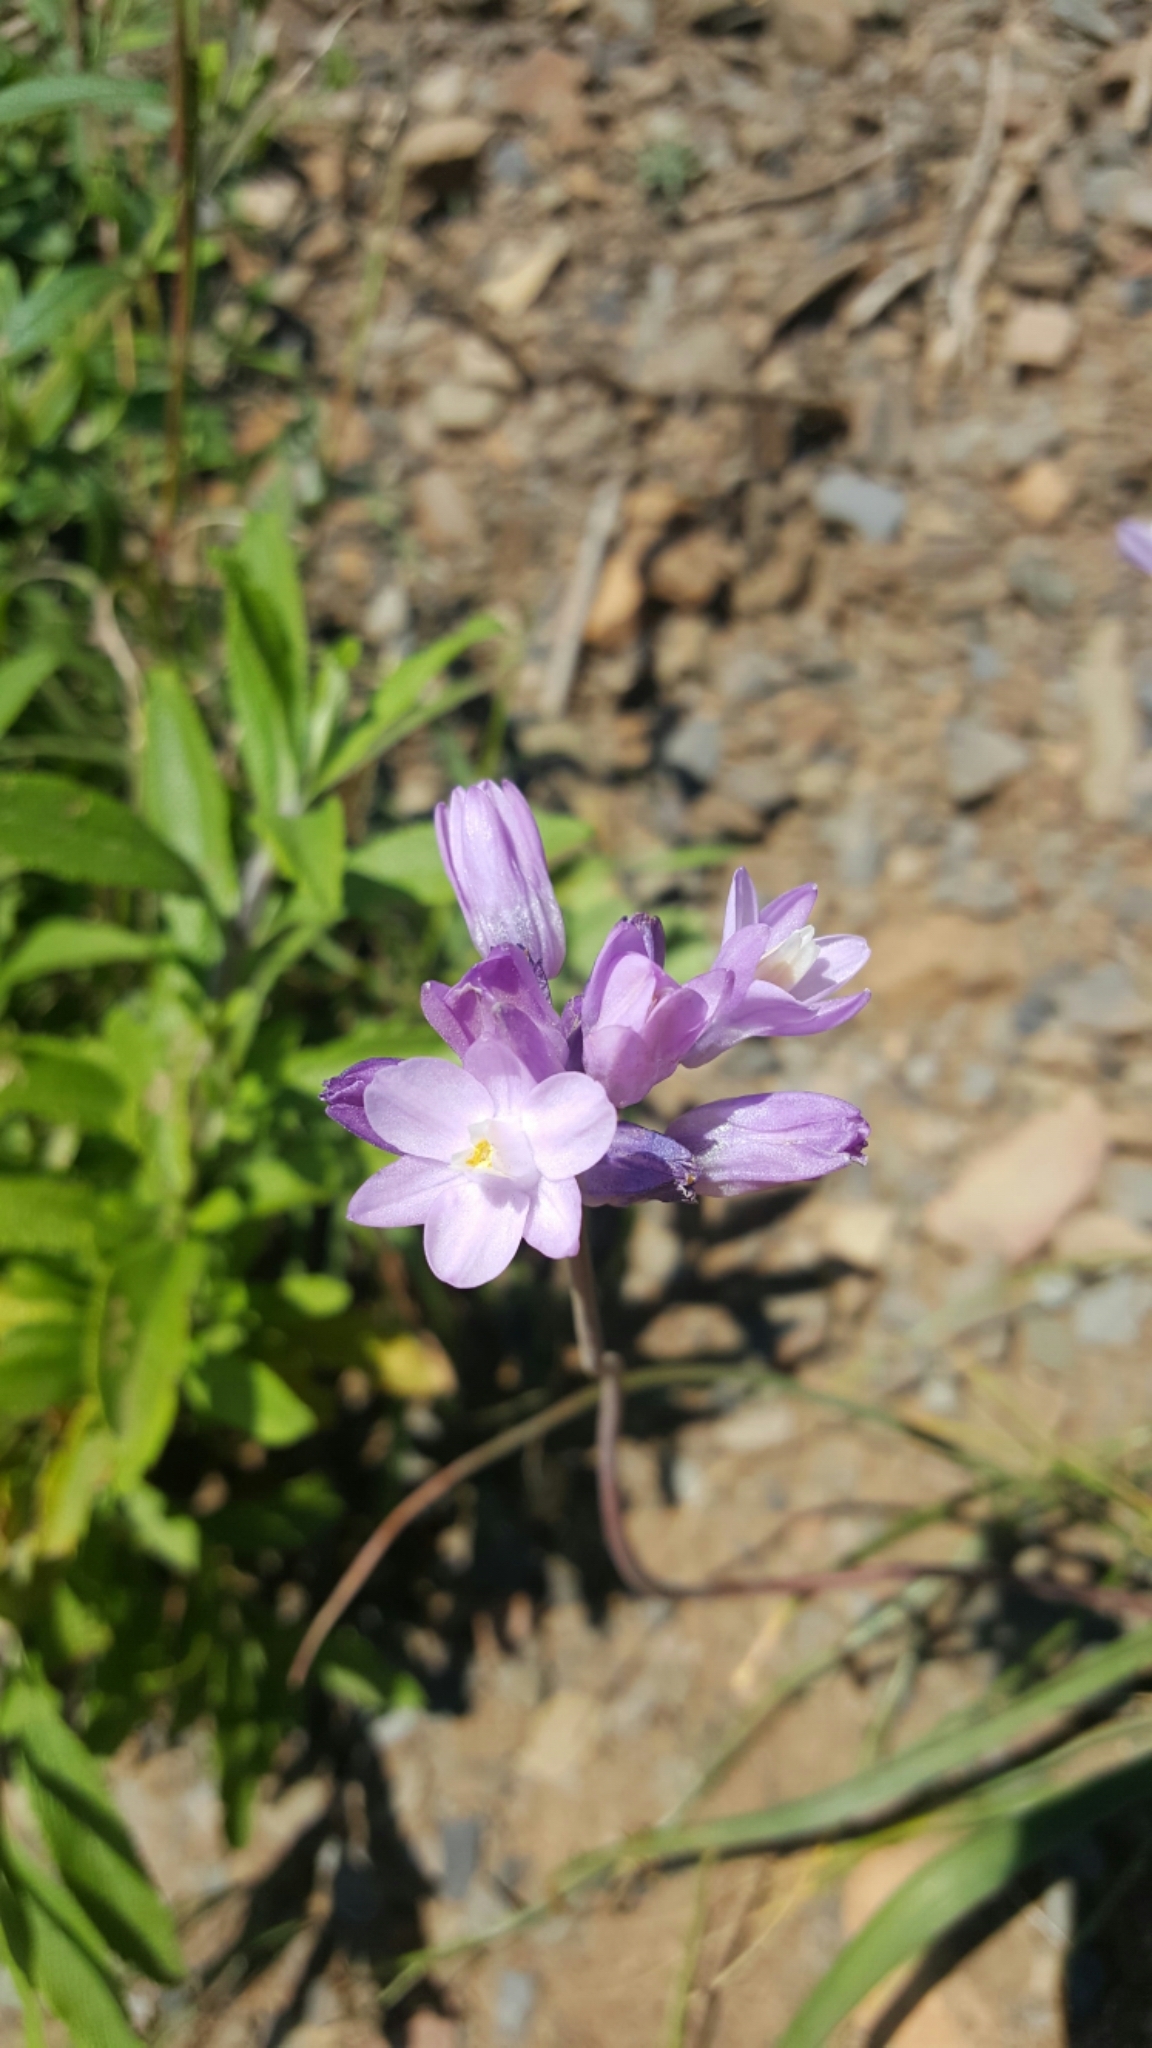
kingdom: Plantae
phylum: Tracheophyta
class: Liliopsida
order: Asparagales
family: Asparagaceae
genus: Dipterostemon
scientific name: Dipterostemon capitatus
